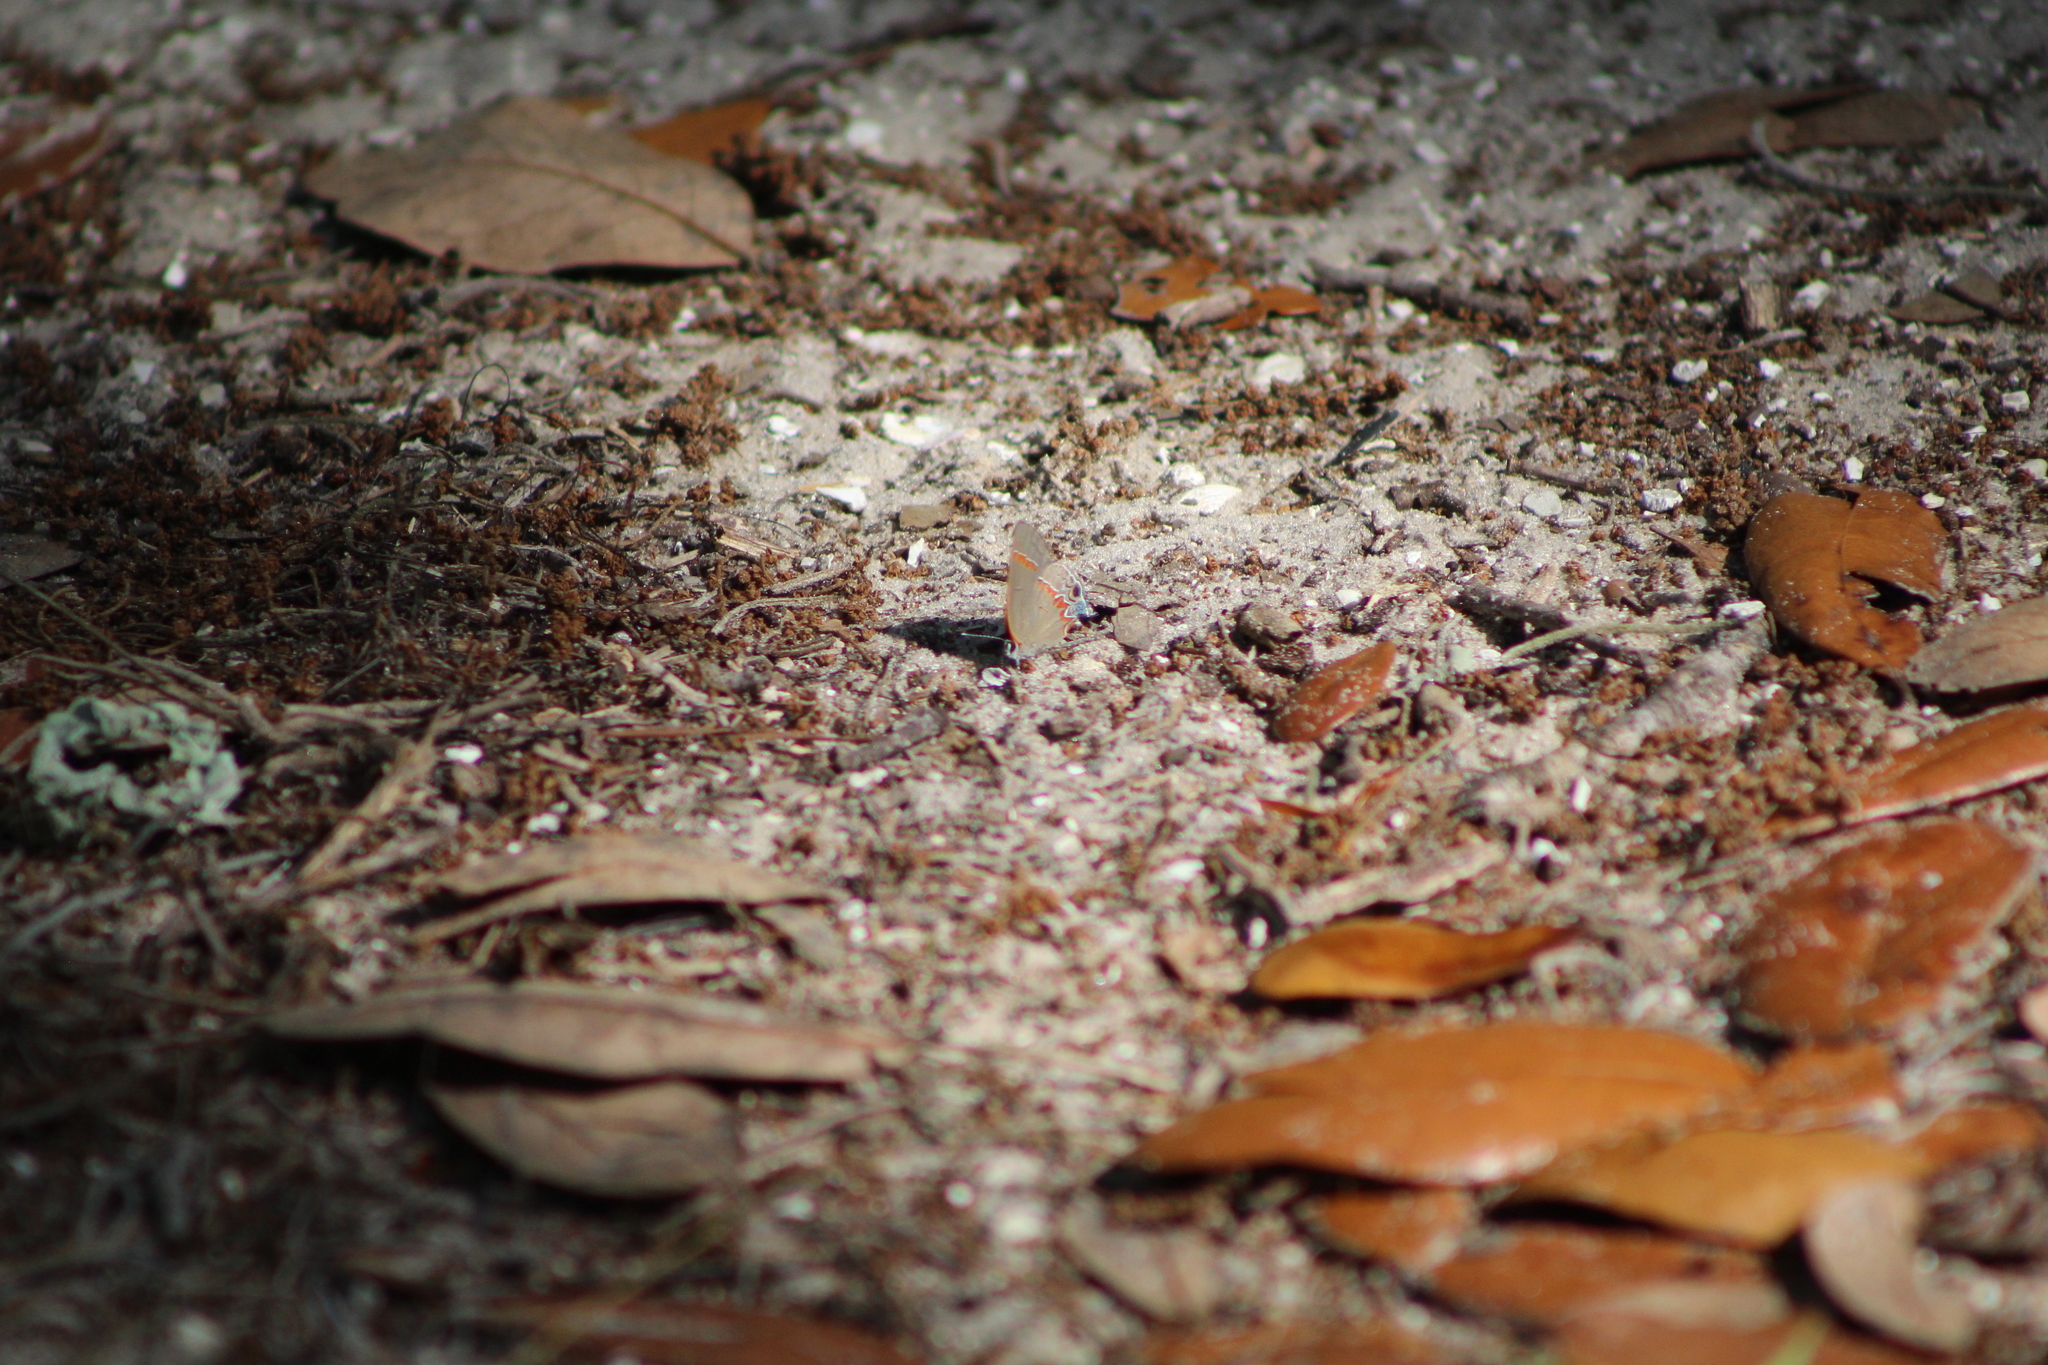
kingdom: Animalia
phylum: Arthropoda
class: Insecta
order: Lepidoptera
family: Lycaenidae
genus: Calycopis
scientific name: Calycopis cecrops
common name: Red-banded hairstreak
